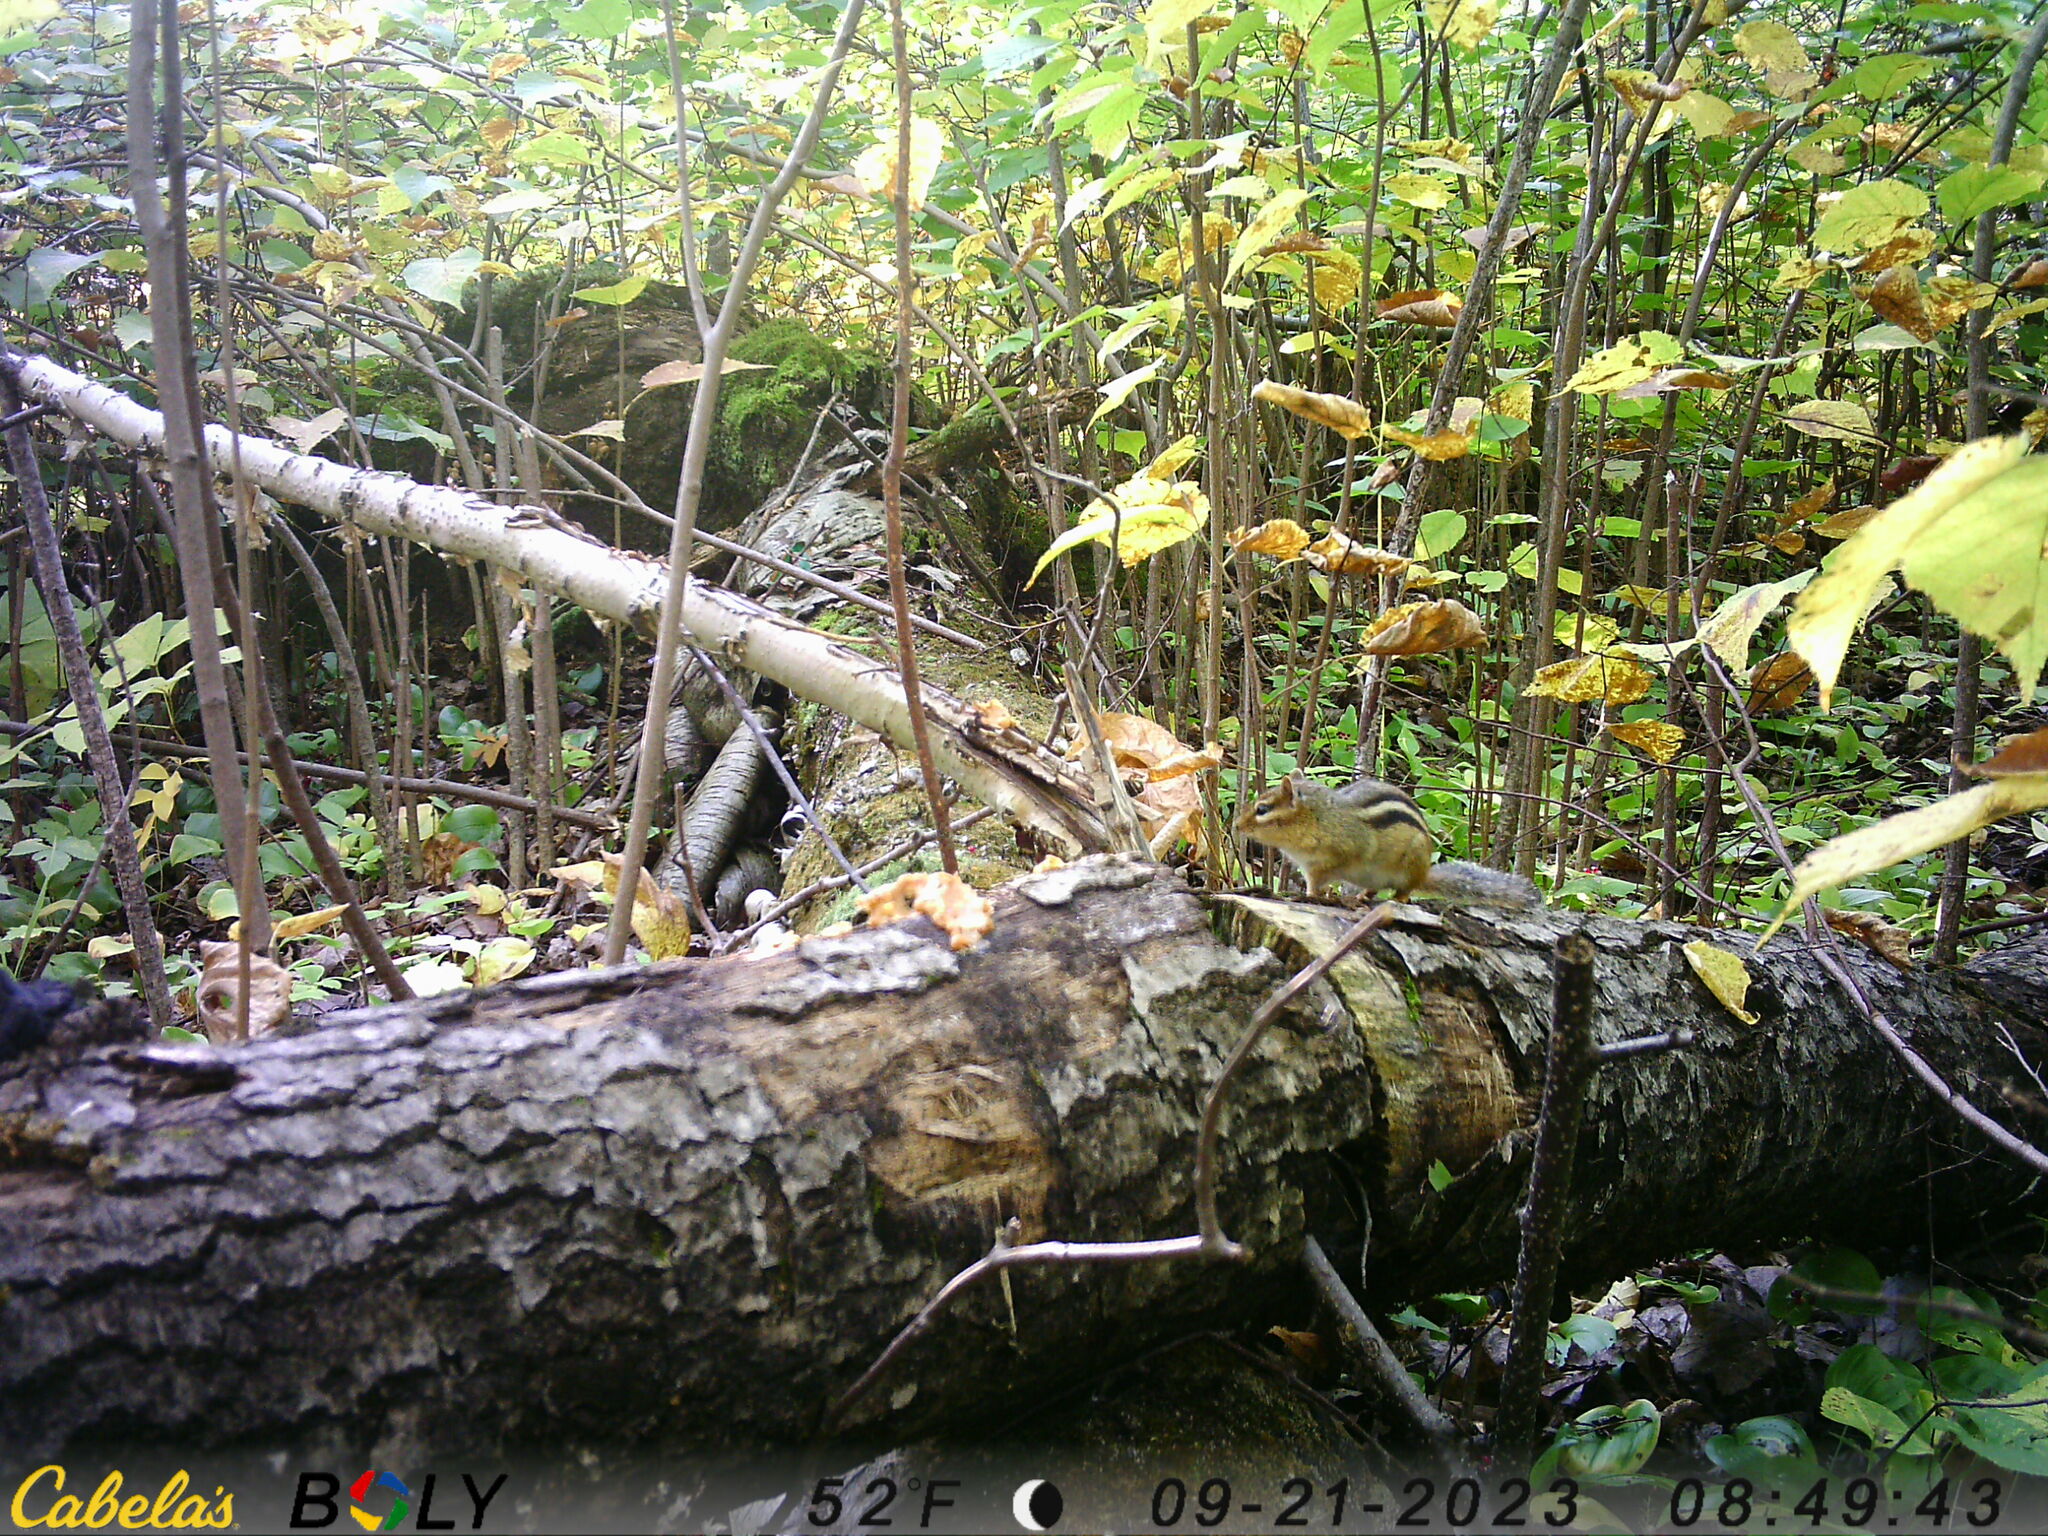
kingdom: Animalia
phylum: Chordata
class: Mammalia
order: Rodentia
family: Sciuridae
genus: Tamias
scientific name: Tamias striatus
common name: Eastern chipmunk
